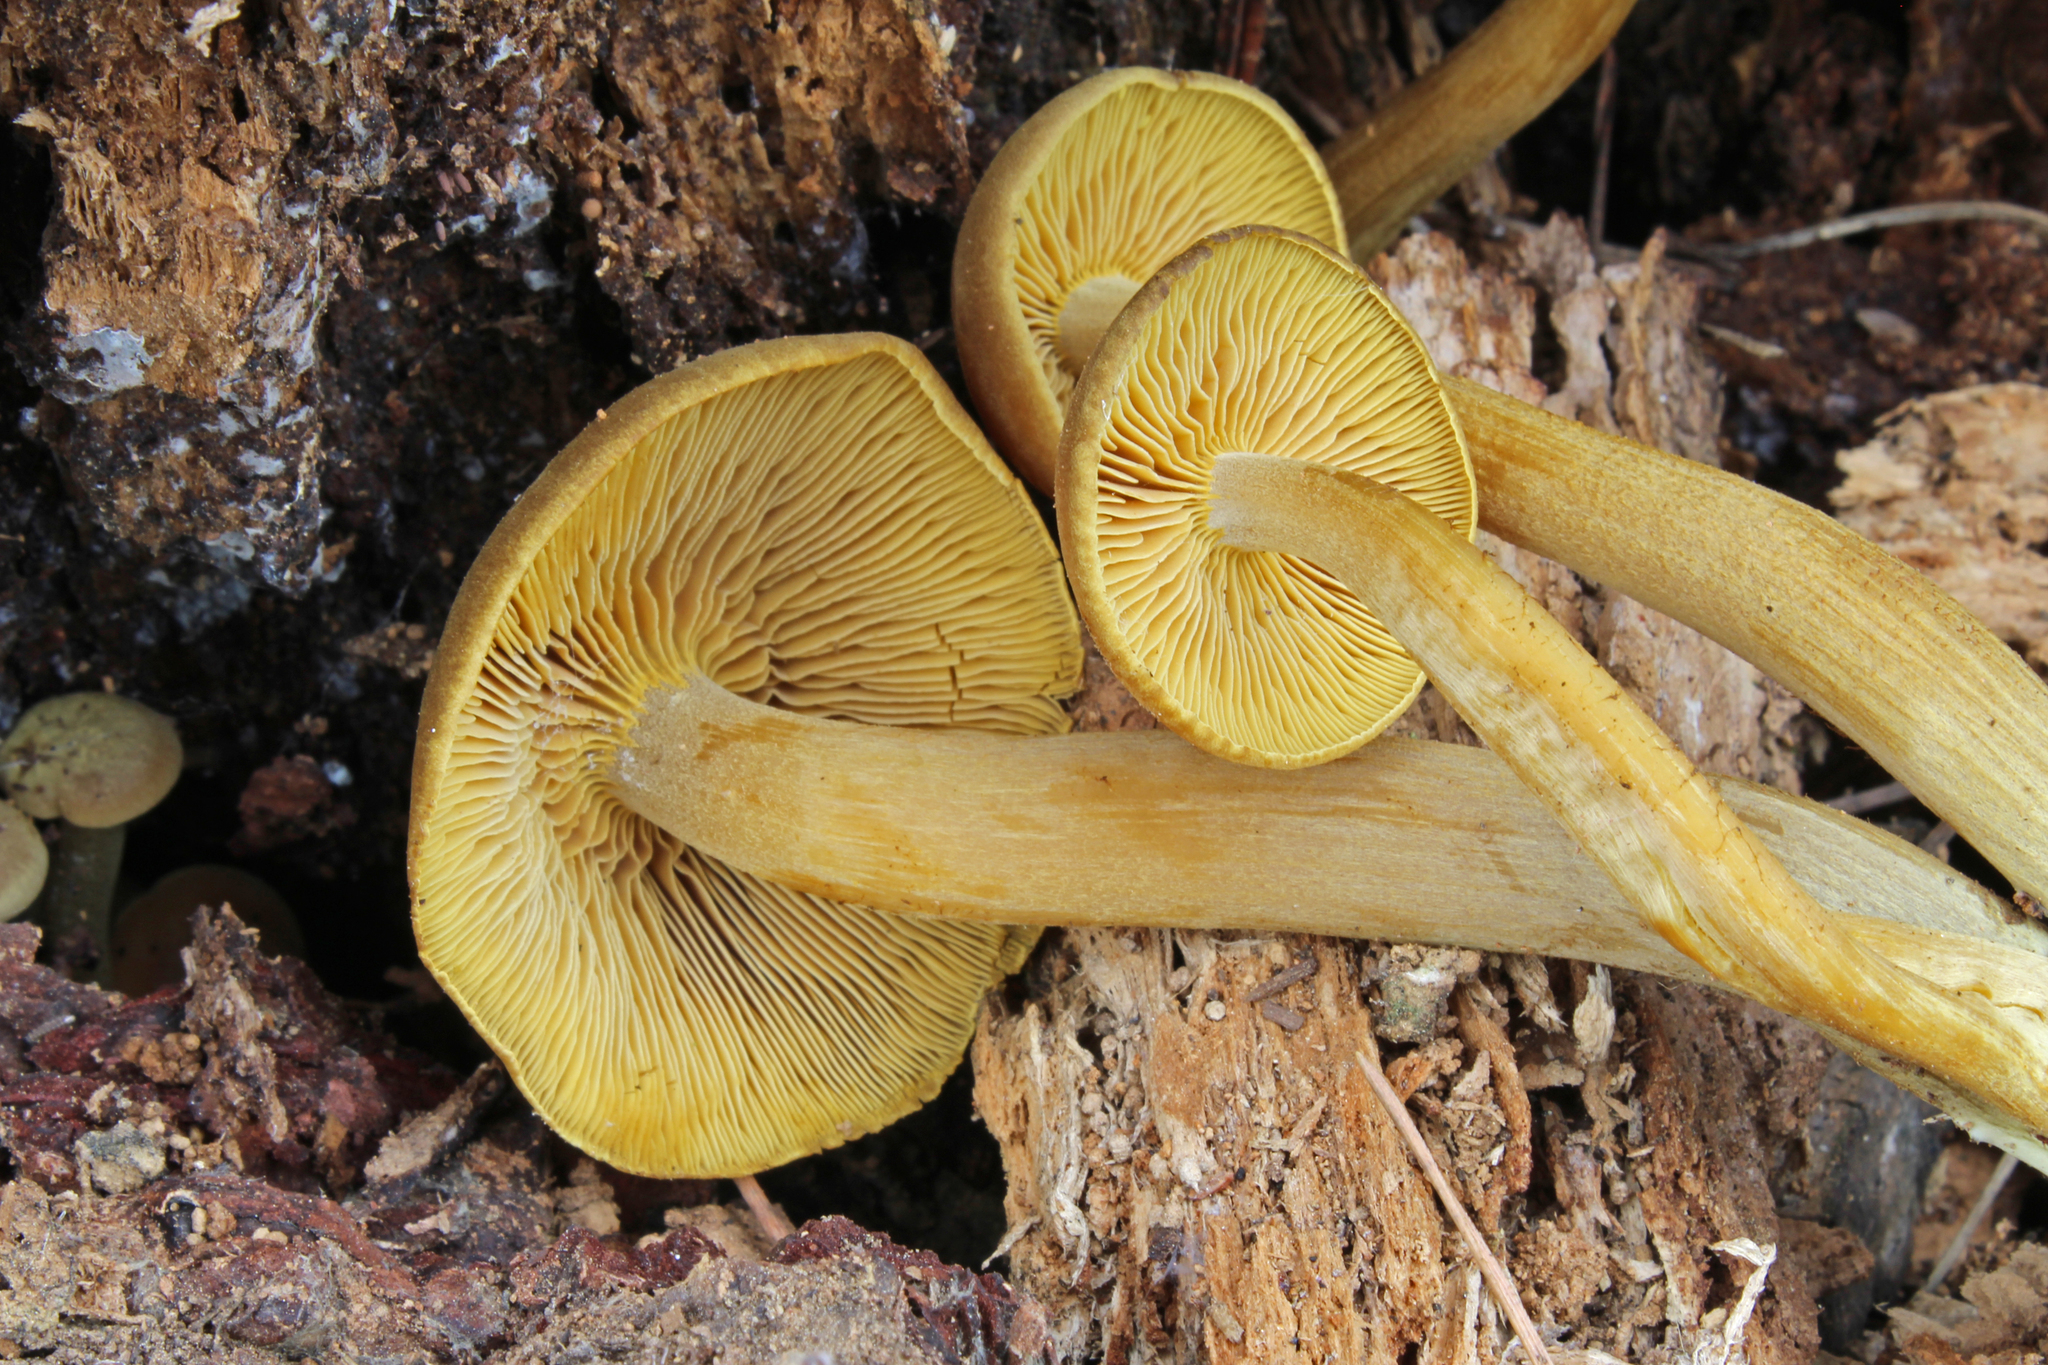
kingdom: Fungi
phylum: Basidiomycota
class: Agaricomycetes
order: Agaricales
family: Callistosporiaceae
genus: Callistosporium
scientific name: Callistosporium luteo-olivaceum
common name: Olive lute
